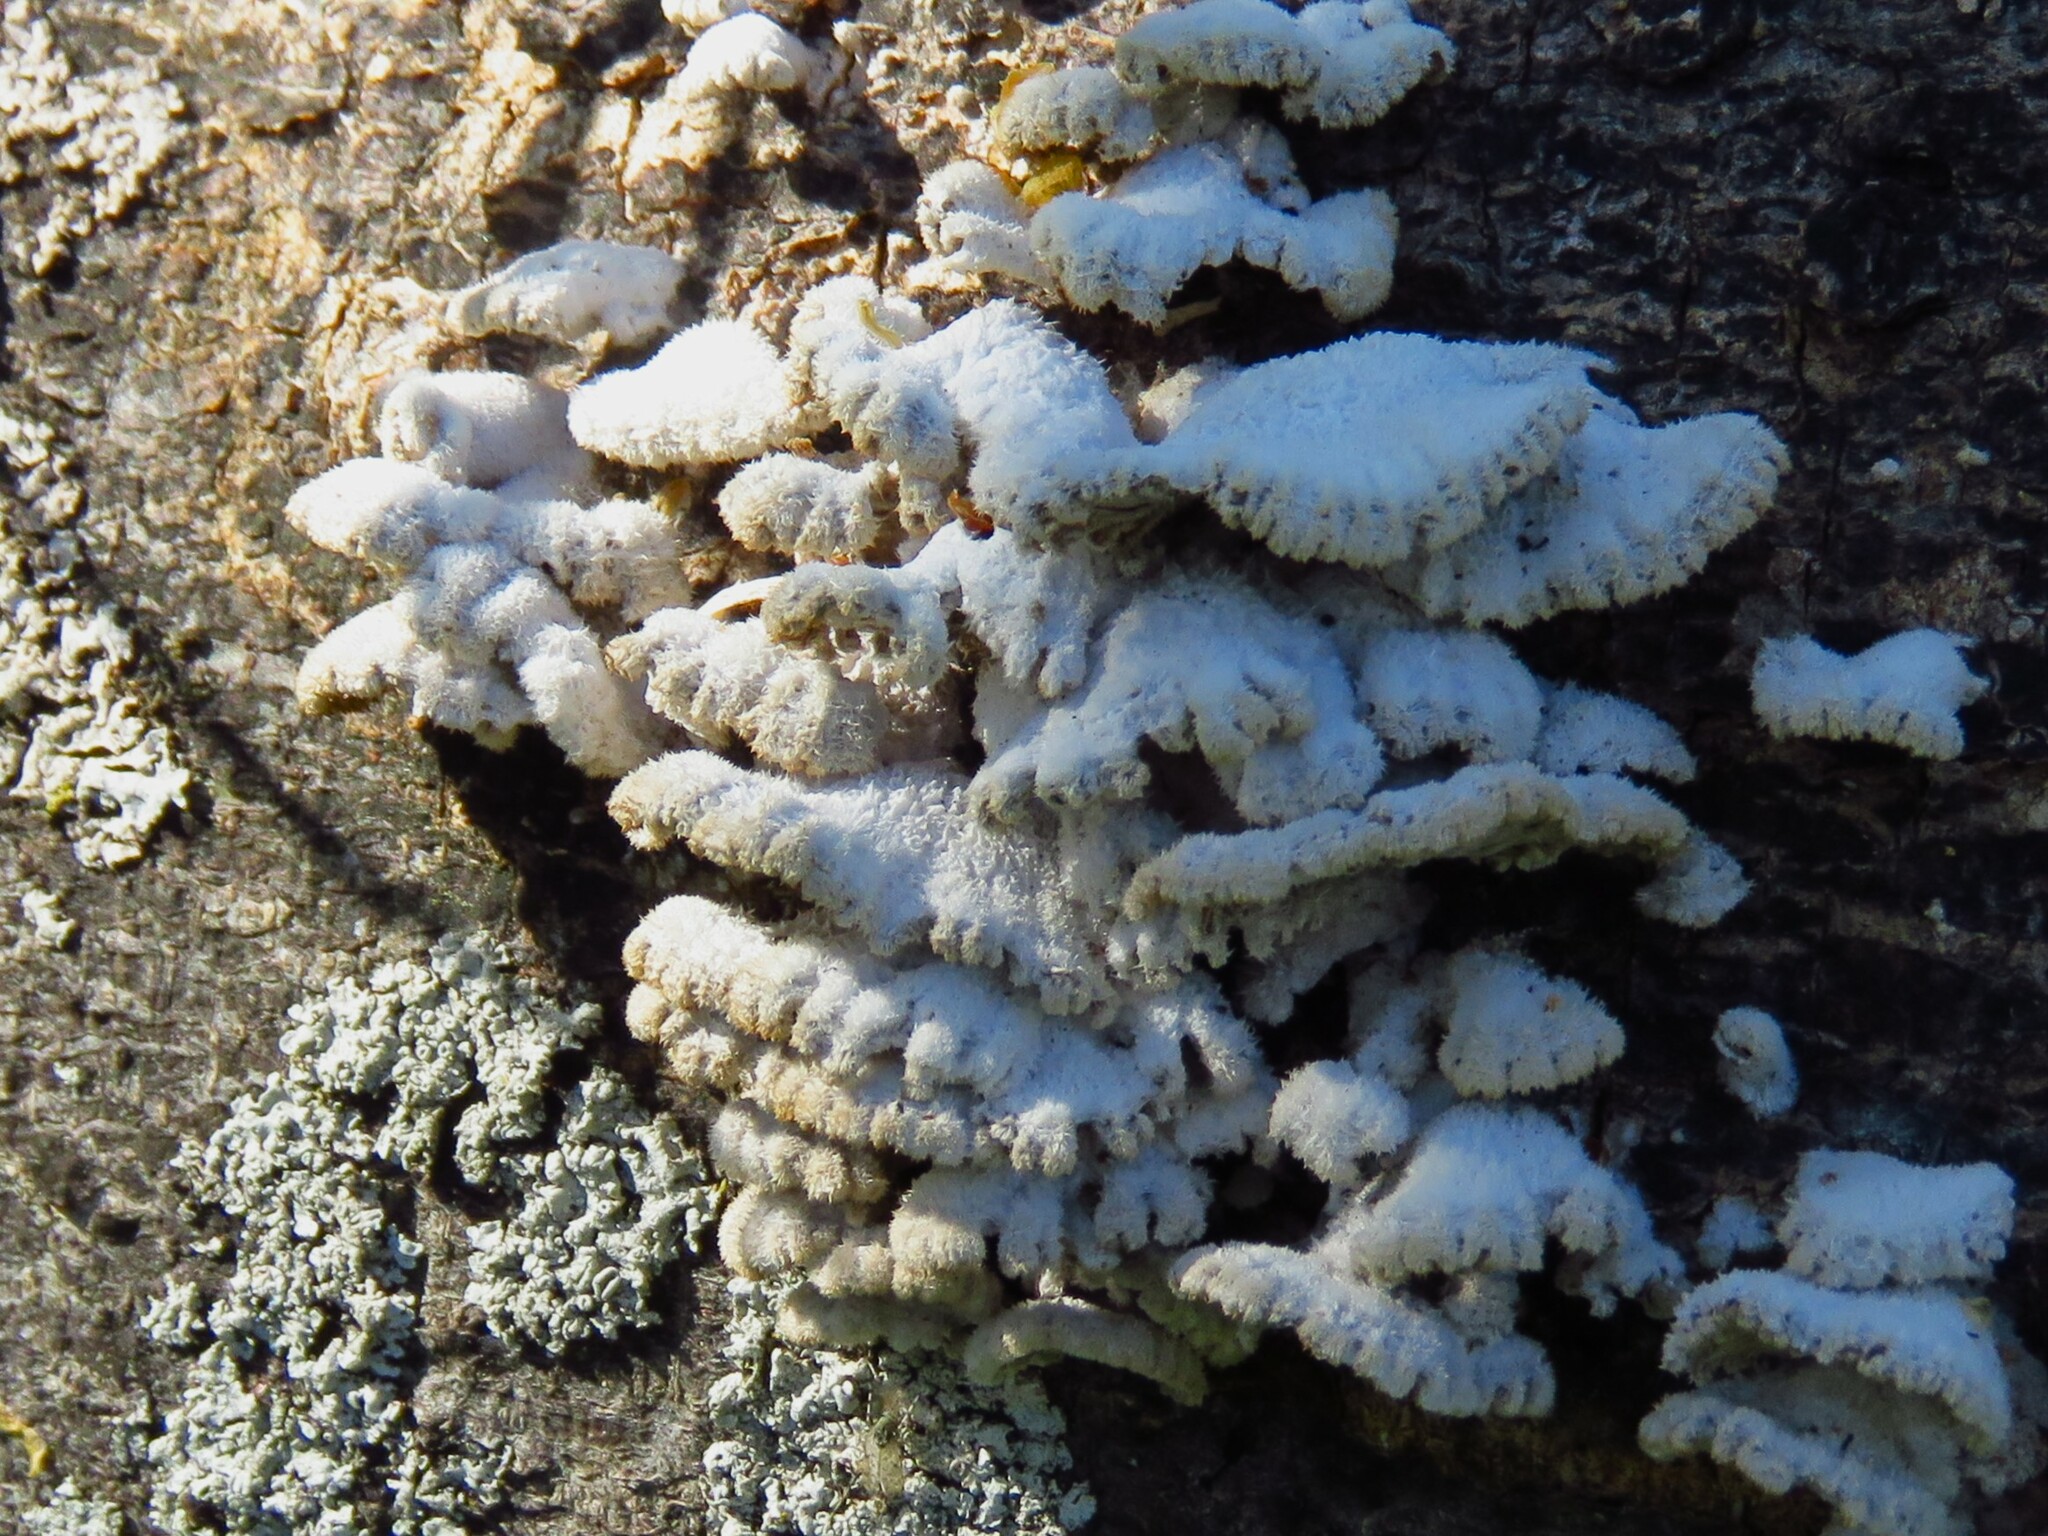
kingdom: Fungi
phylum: Basidiomycota
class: Agaricomycetes
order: Agaricales
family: Schizophyllaceae
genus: Schizophyllum
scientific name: Schizophyllum commune
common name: Common porecrust
